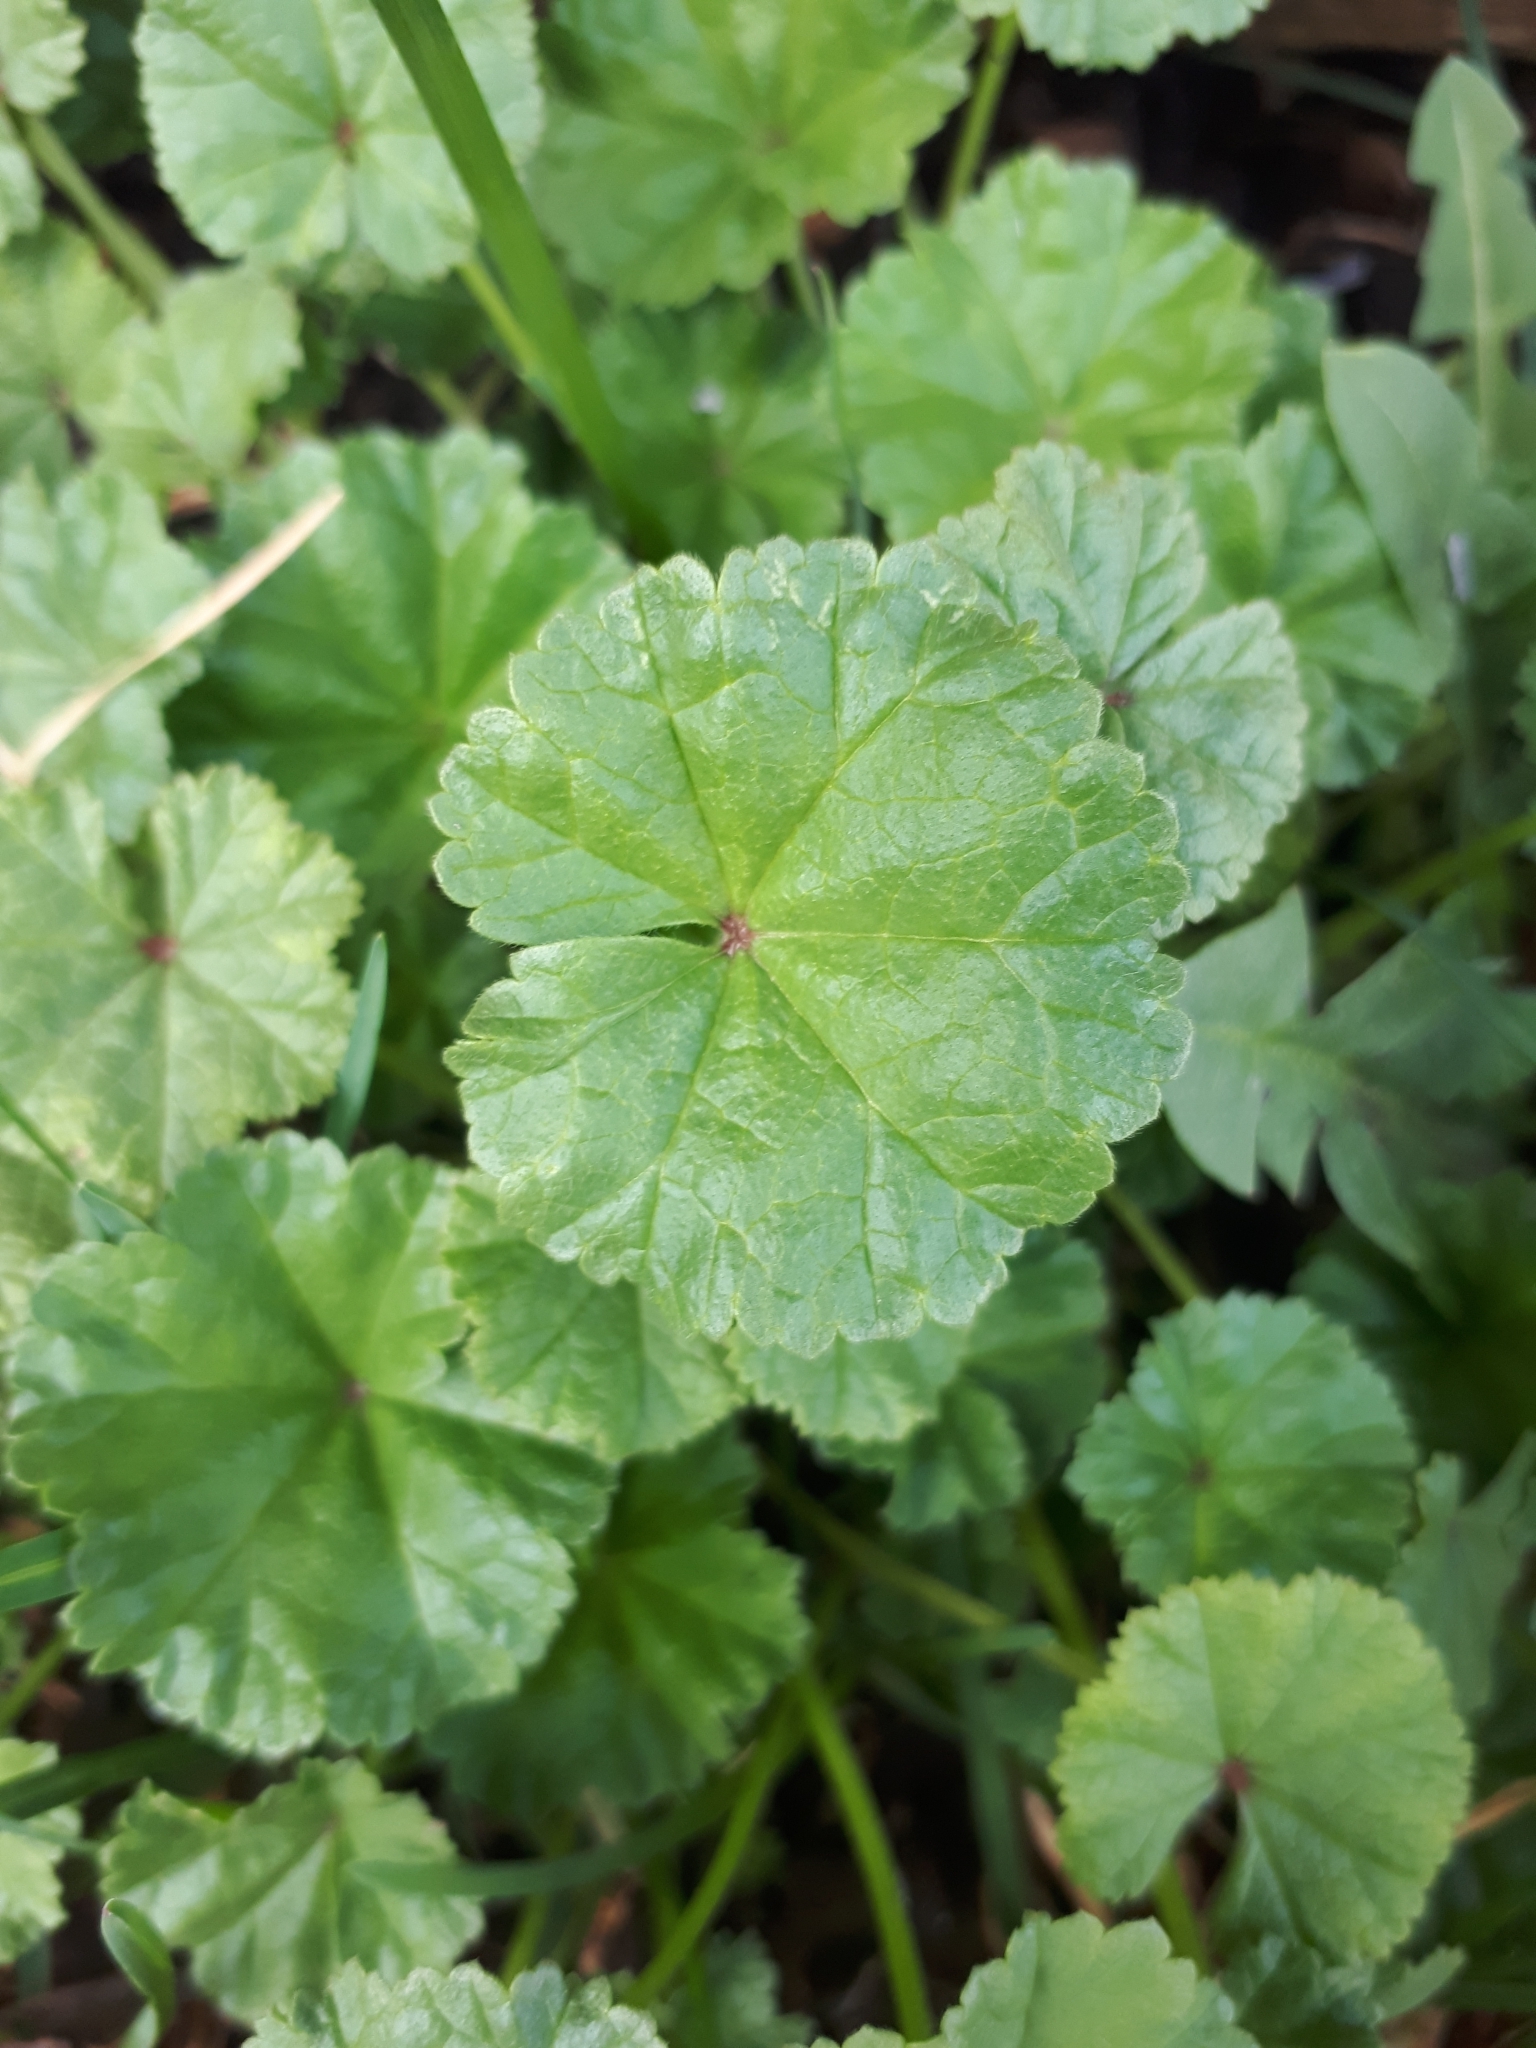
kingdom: Plantae
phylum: Tracheophyta
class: Magnoliopsida
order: Malvales
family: Malvaceae
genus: Malva
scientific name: Malva neglecta
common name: Common mallow
